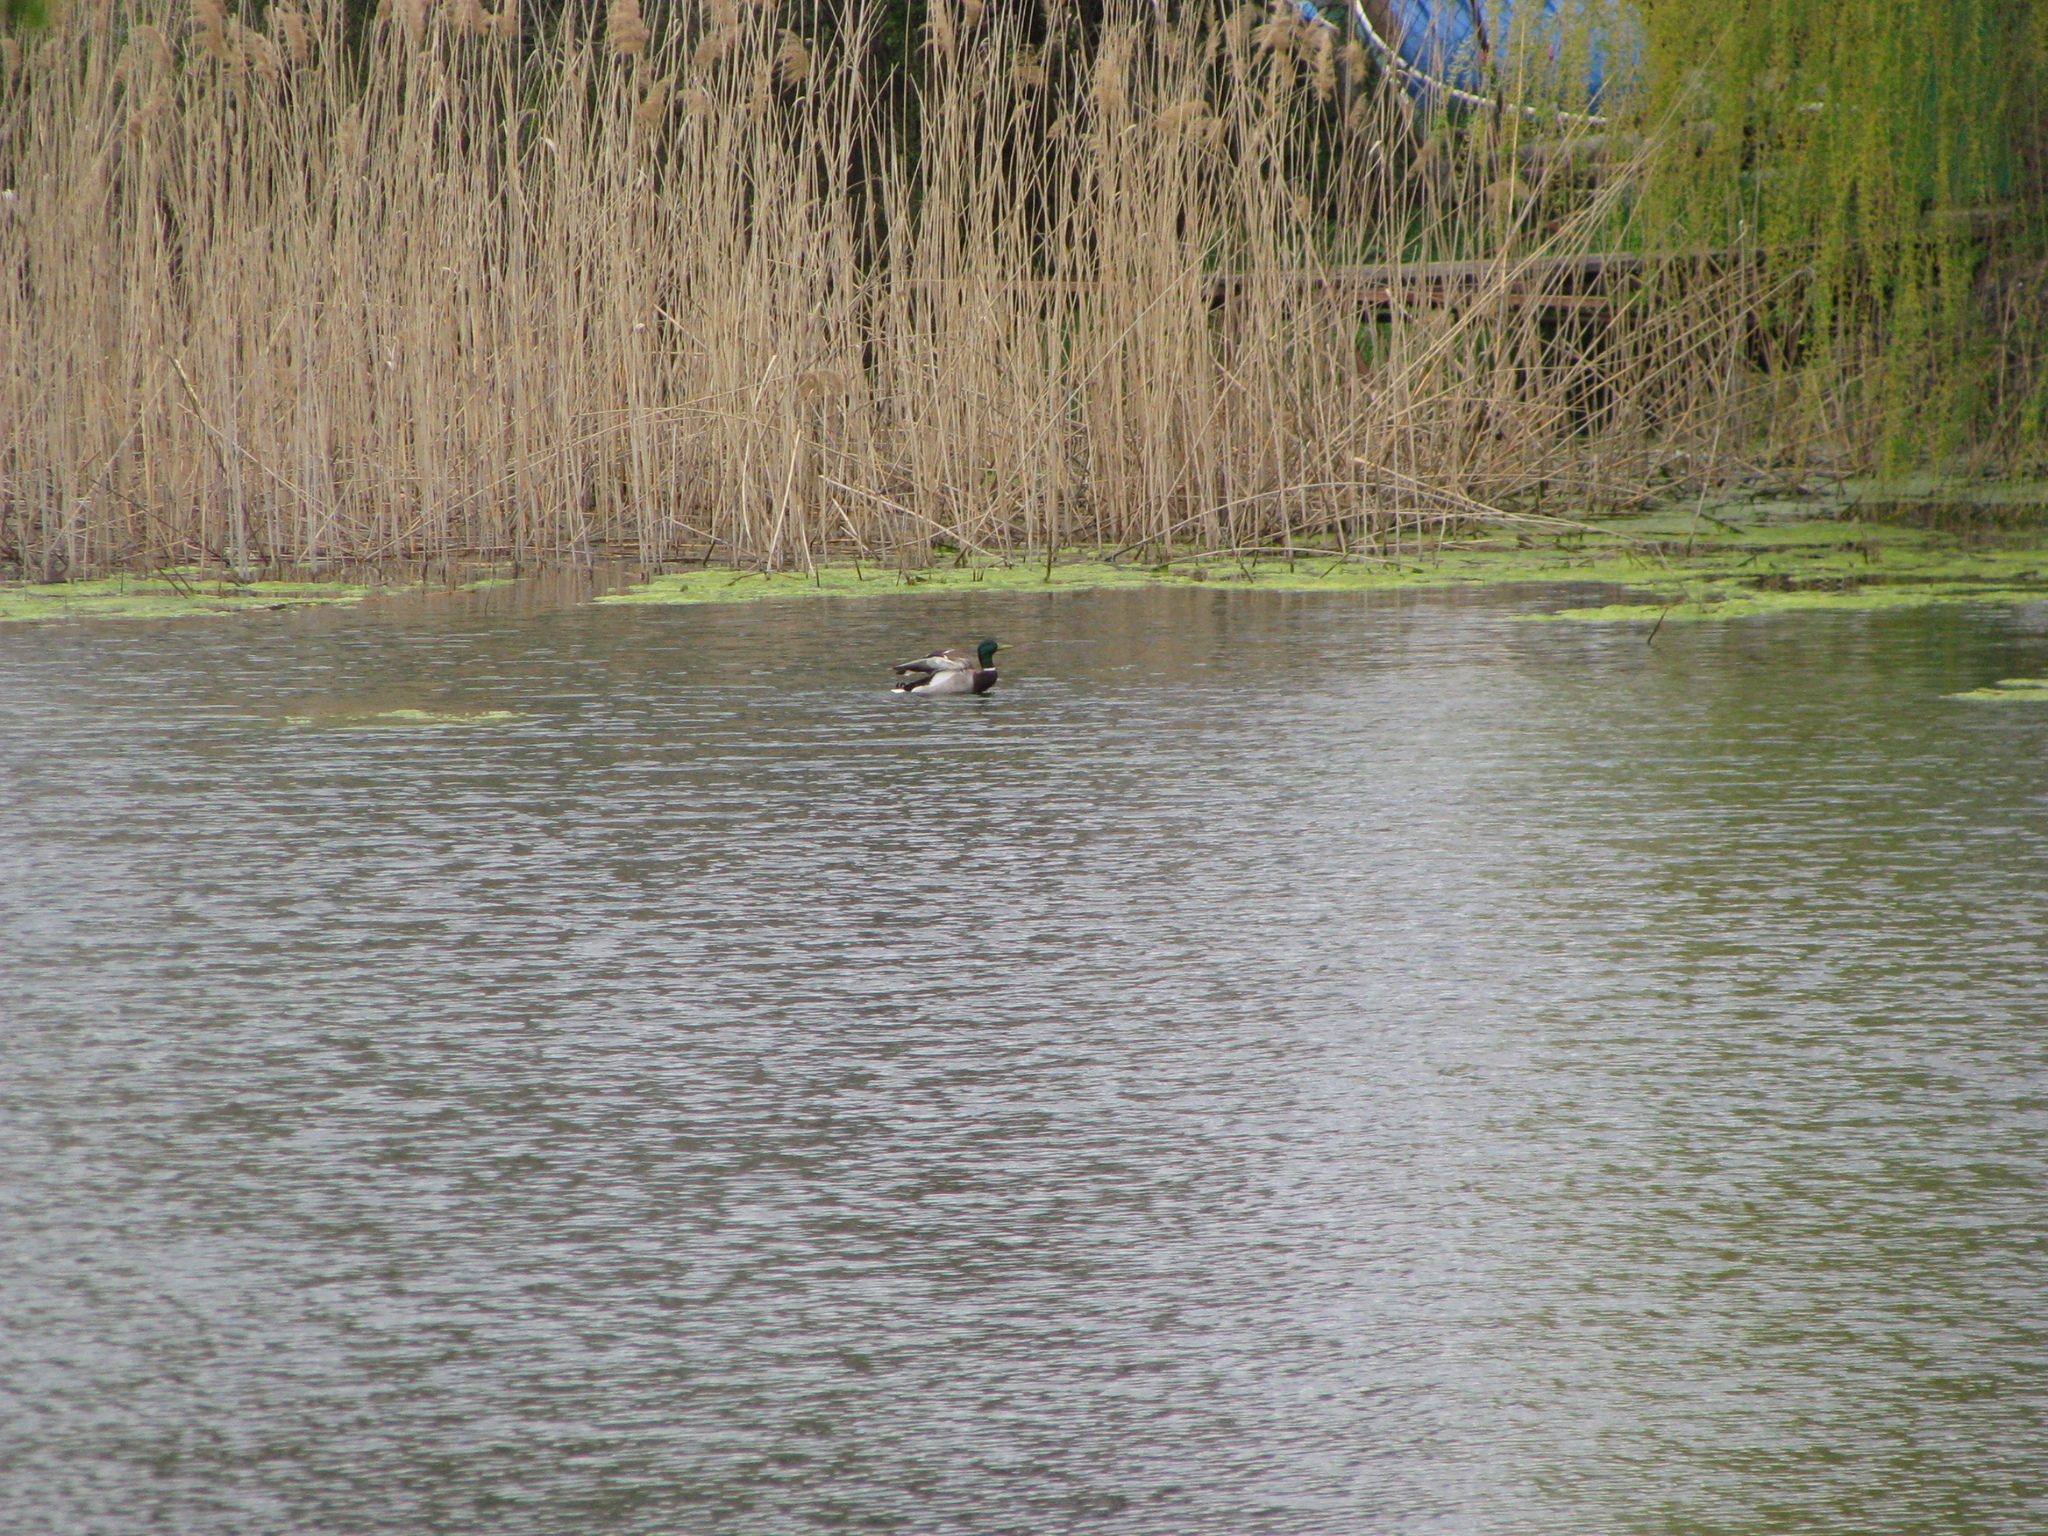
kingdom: Animalia
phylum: Chordata
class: Aves
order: Anseriformes
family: Anatidae
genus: Anas
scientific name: Anas platyrhynchos
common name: Mallard
